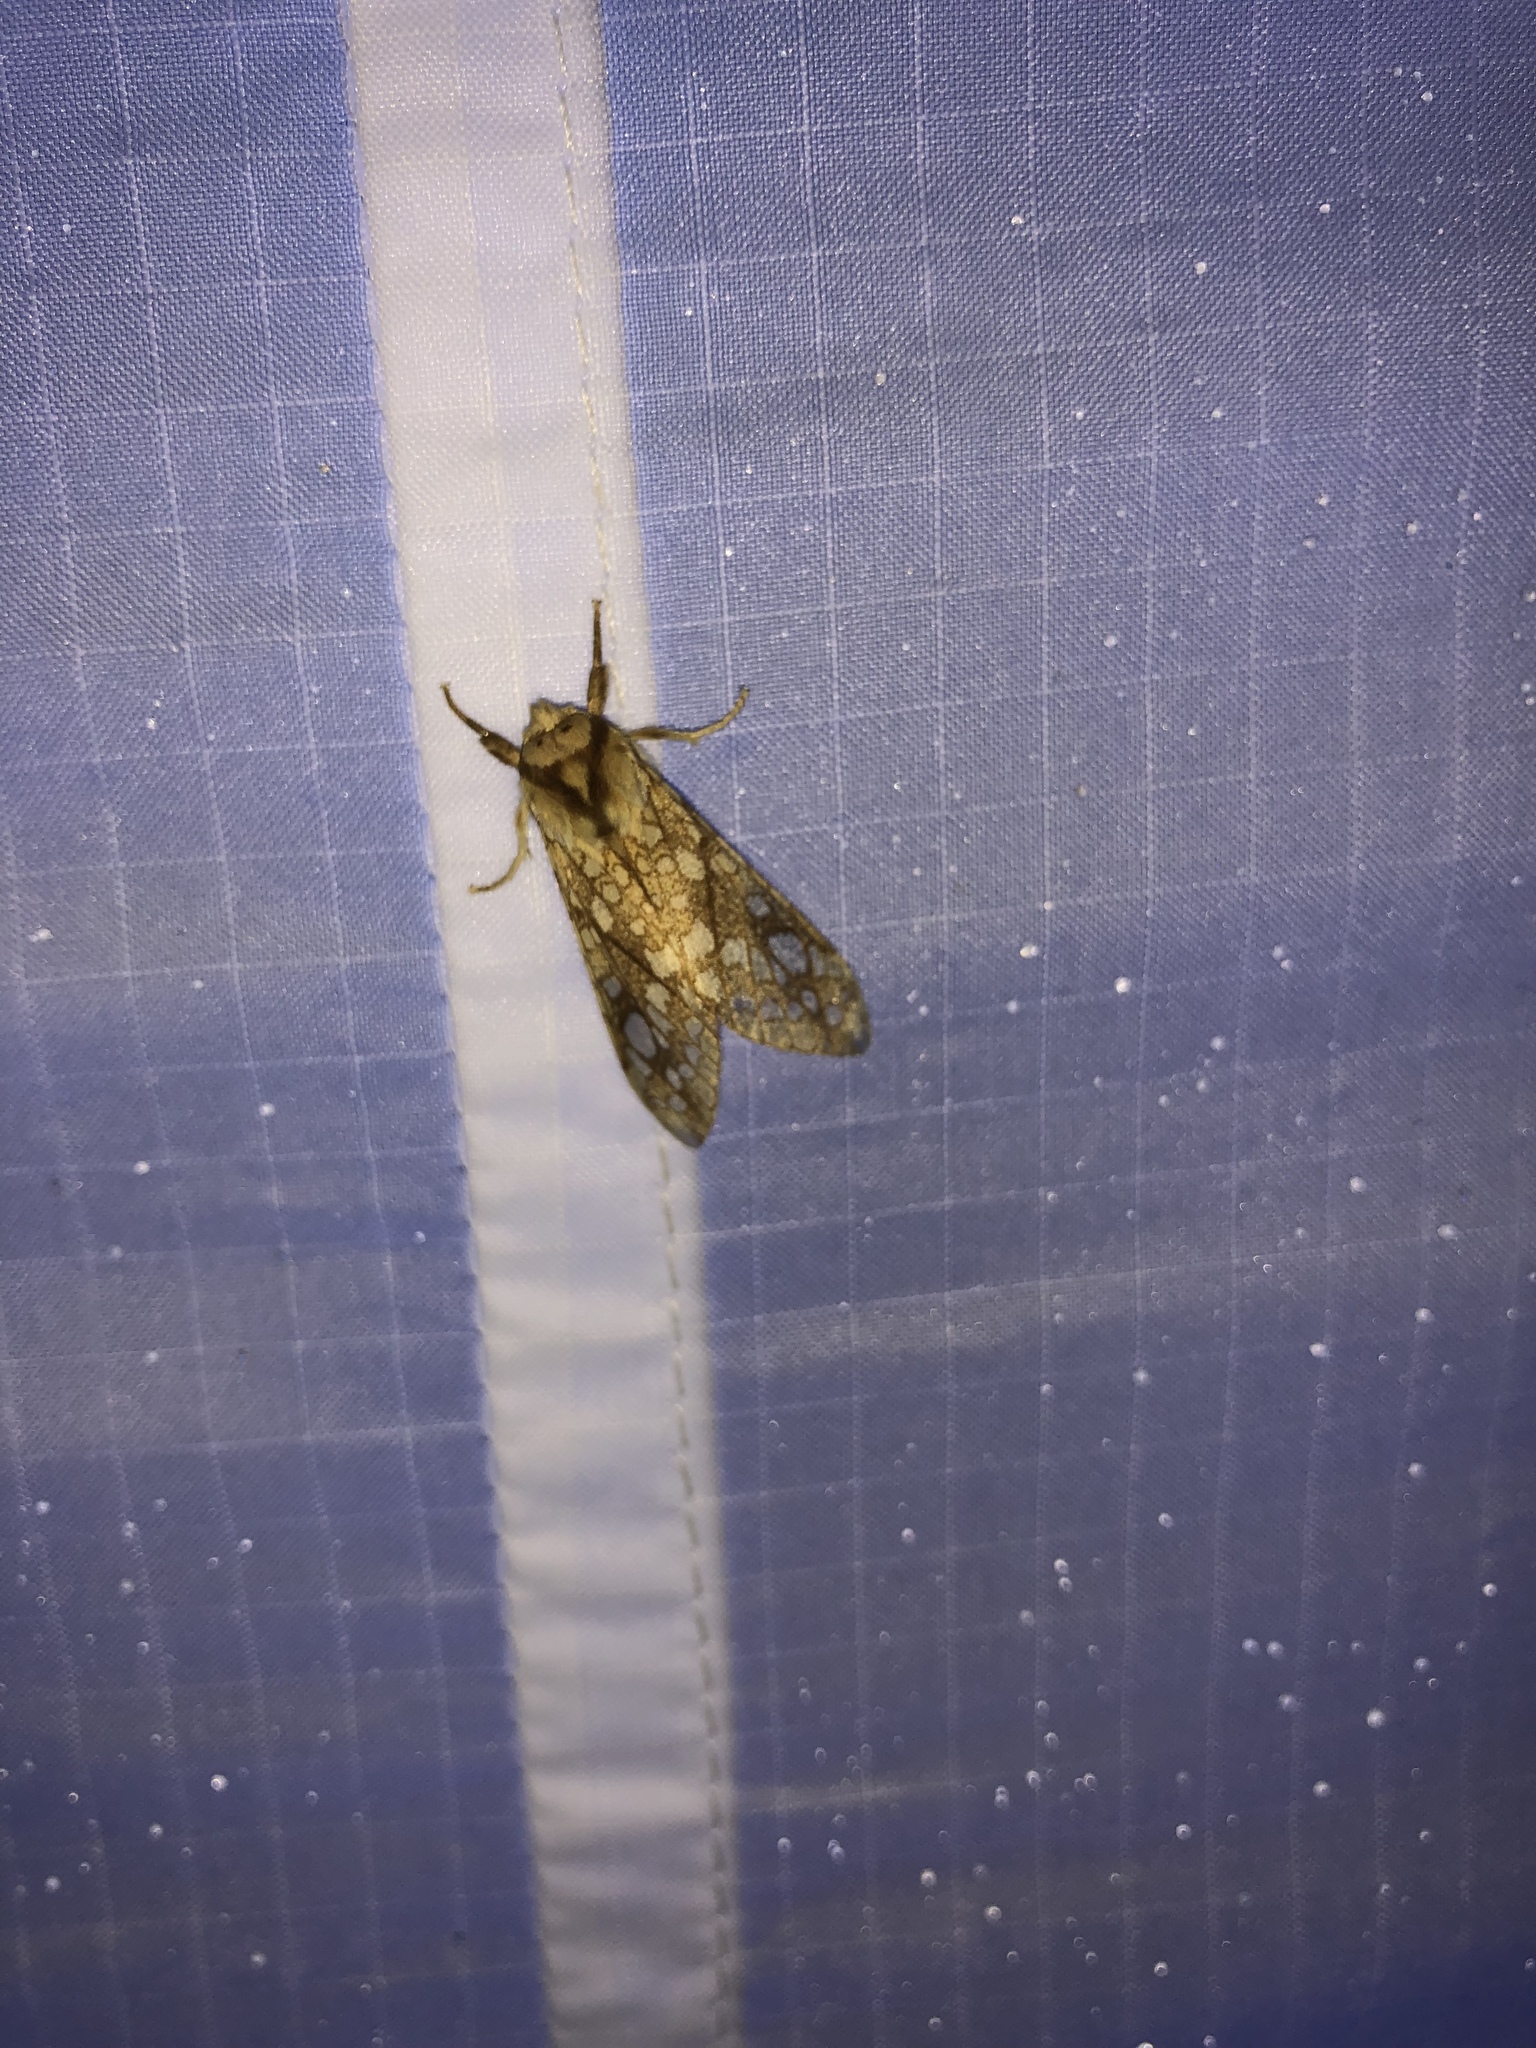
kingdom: Animalia
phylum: Arthropoda
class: Insecta
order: Lepidoptera
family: Erebidae
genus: Lophocampa
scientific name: Lophocampa caryae
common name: Hickory tussock moth
